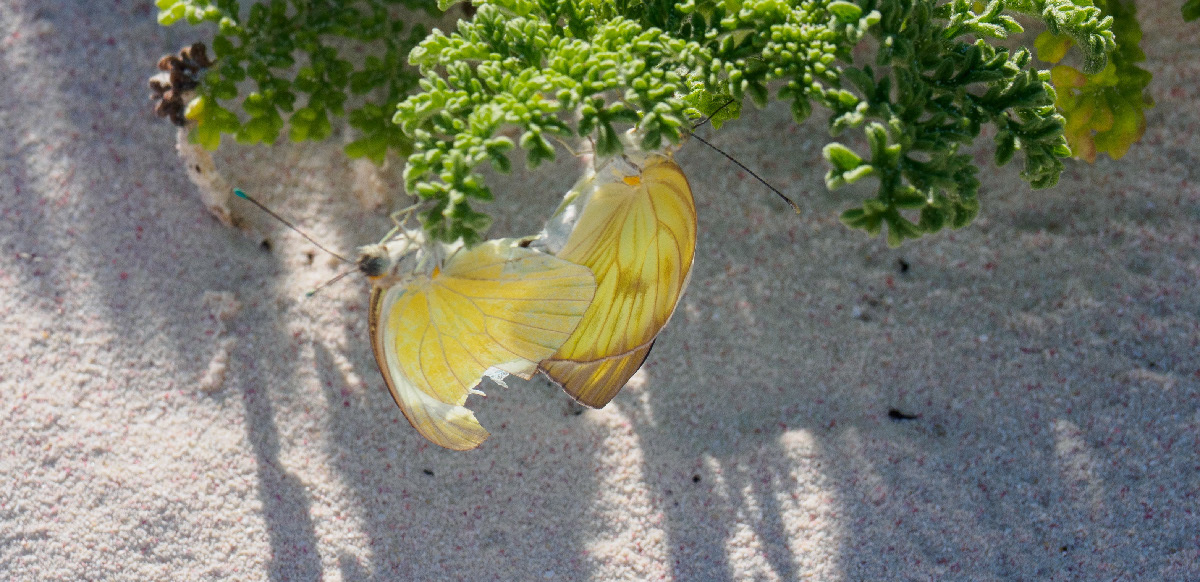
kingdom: Animalia
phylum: Arthropoda
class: Insecta
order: Lepidoptera
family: Pieridae
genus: Ascia
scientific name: Ascia monuste
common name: Great southern white
